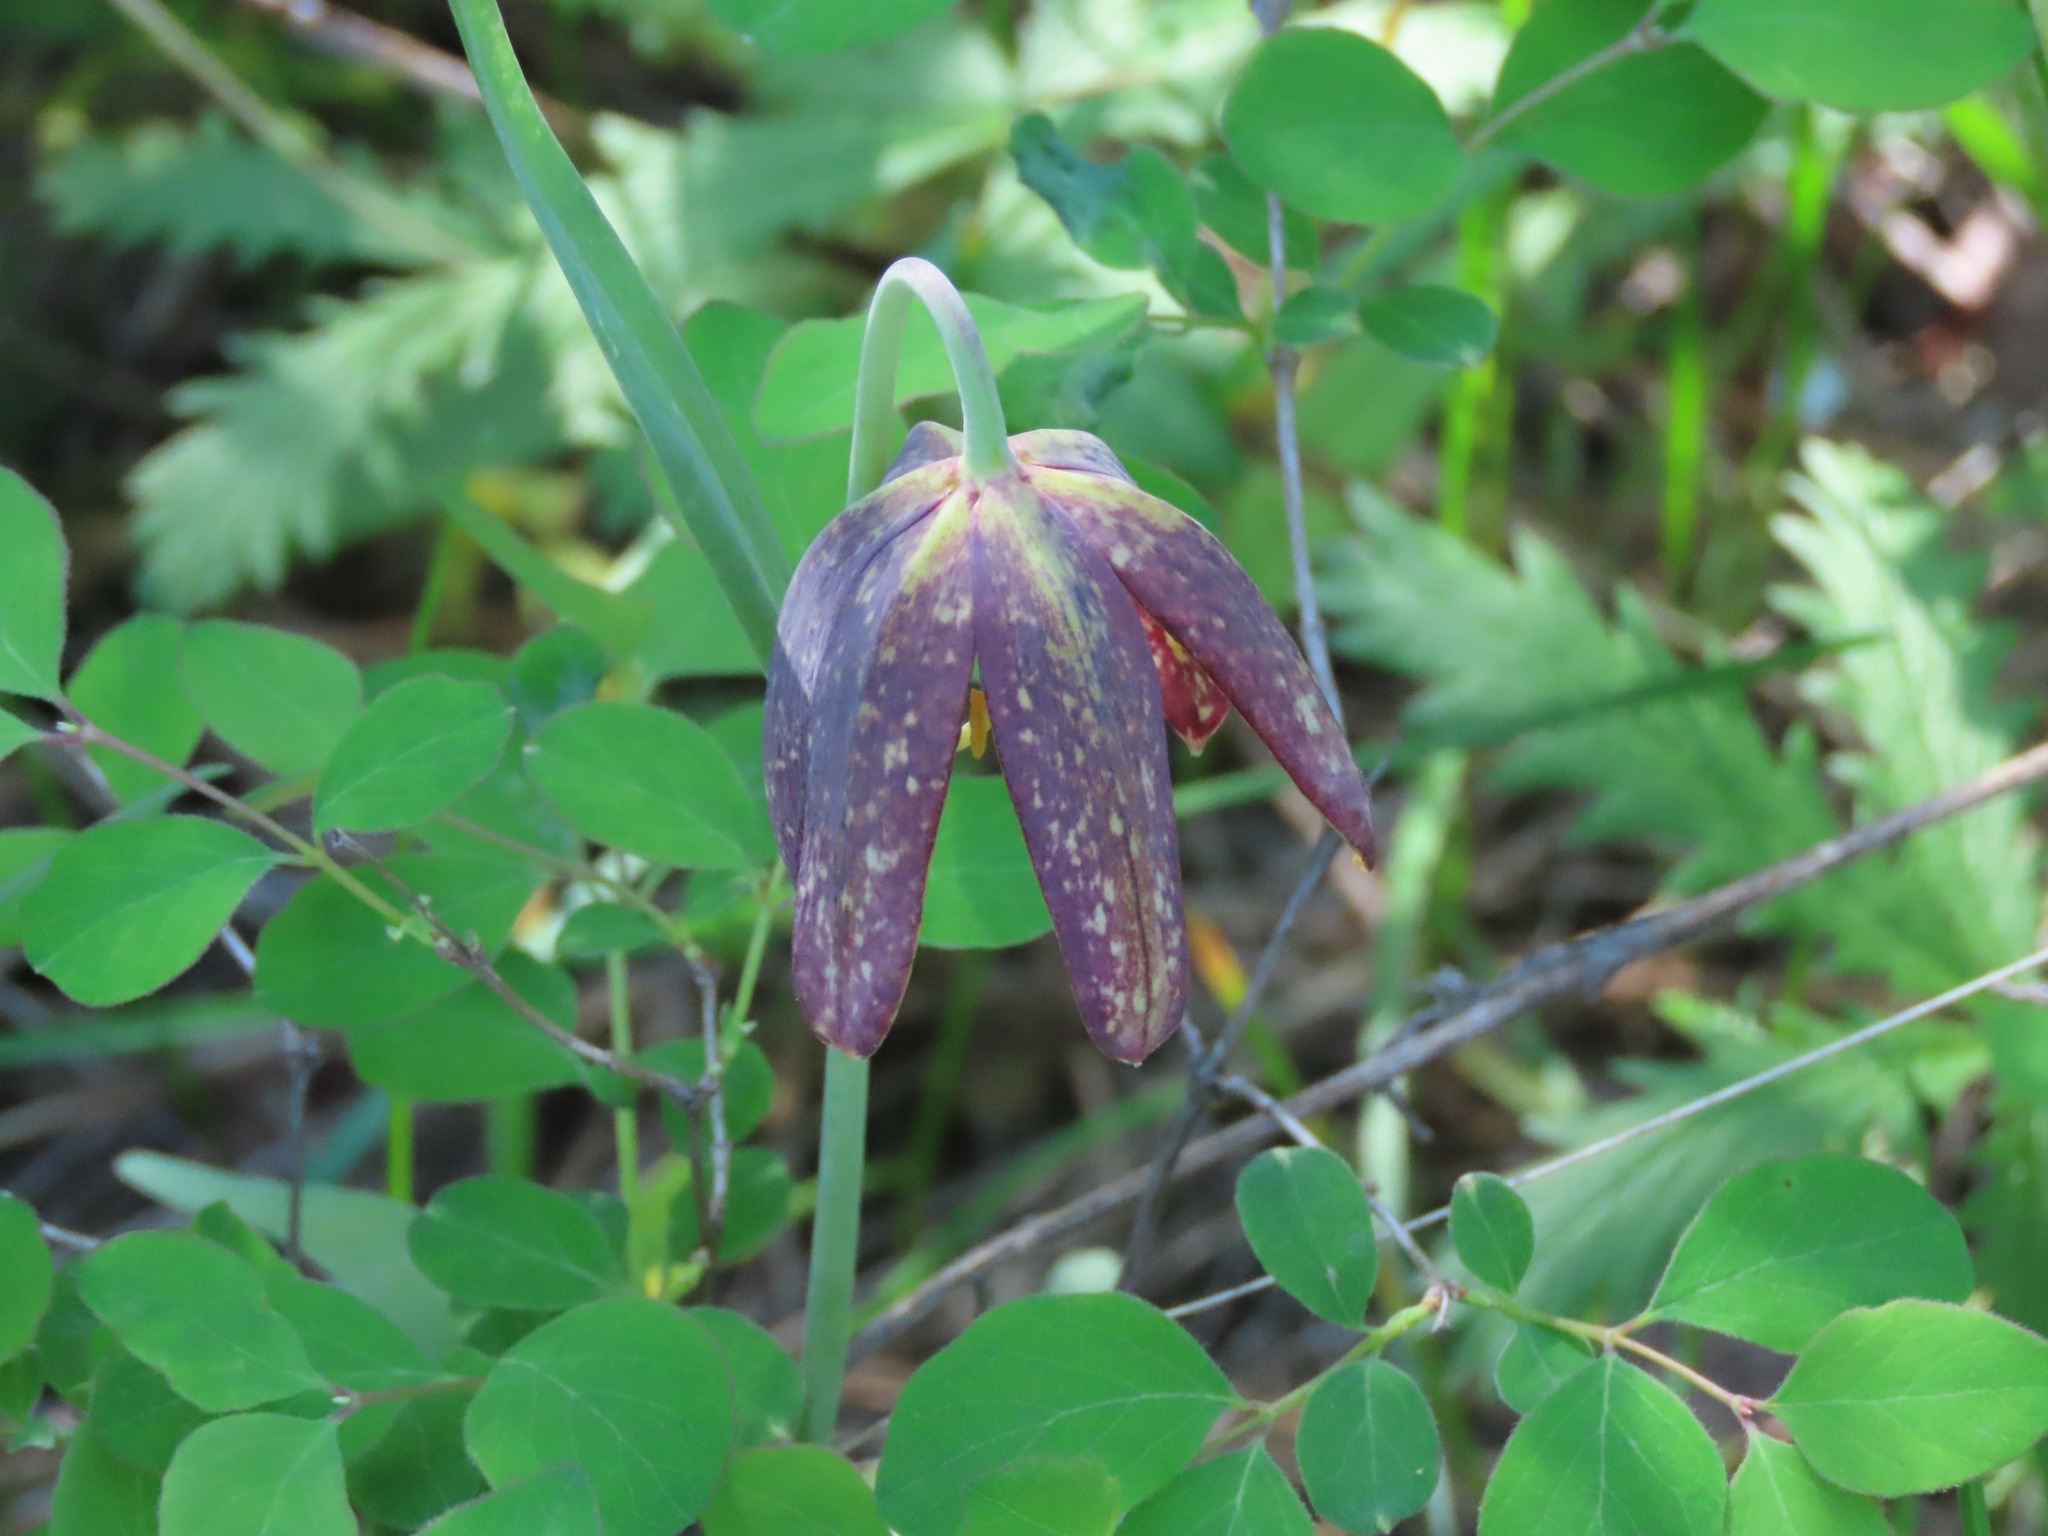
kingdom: Plantae
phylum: Tracheophyta
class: Liliopsida
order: Liliales
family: Liliaceae
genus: Fritillaria
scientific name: Fritillaria affinis
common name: Ojai fritillary
